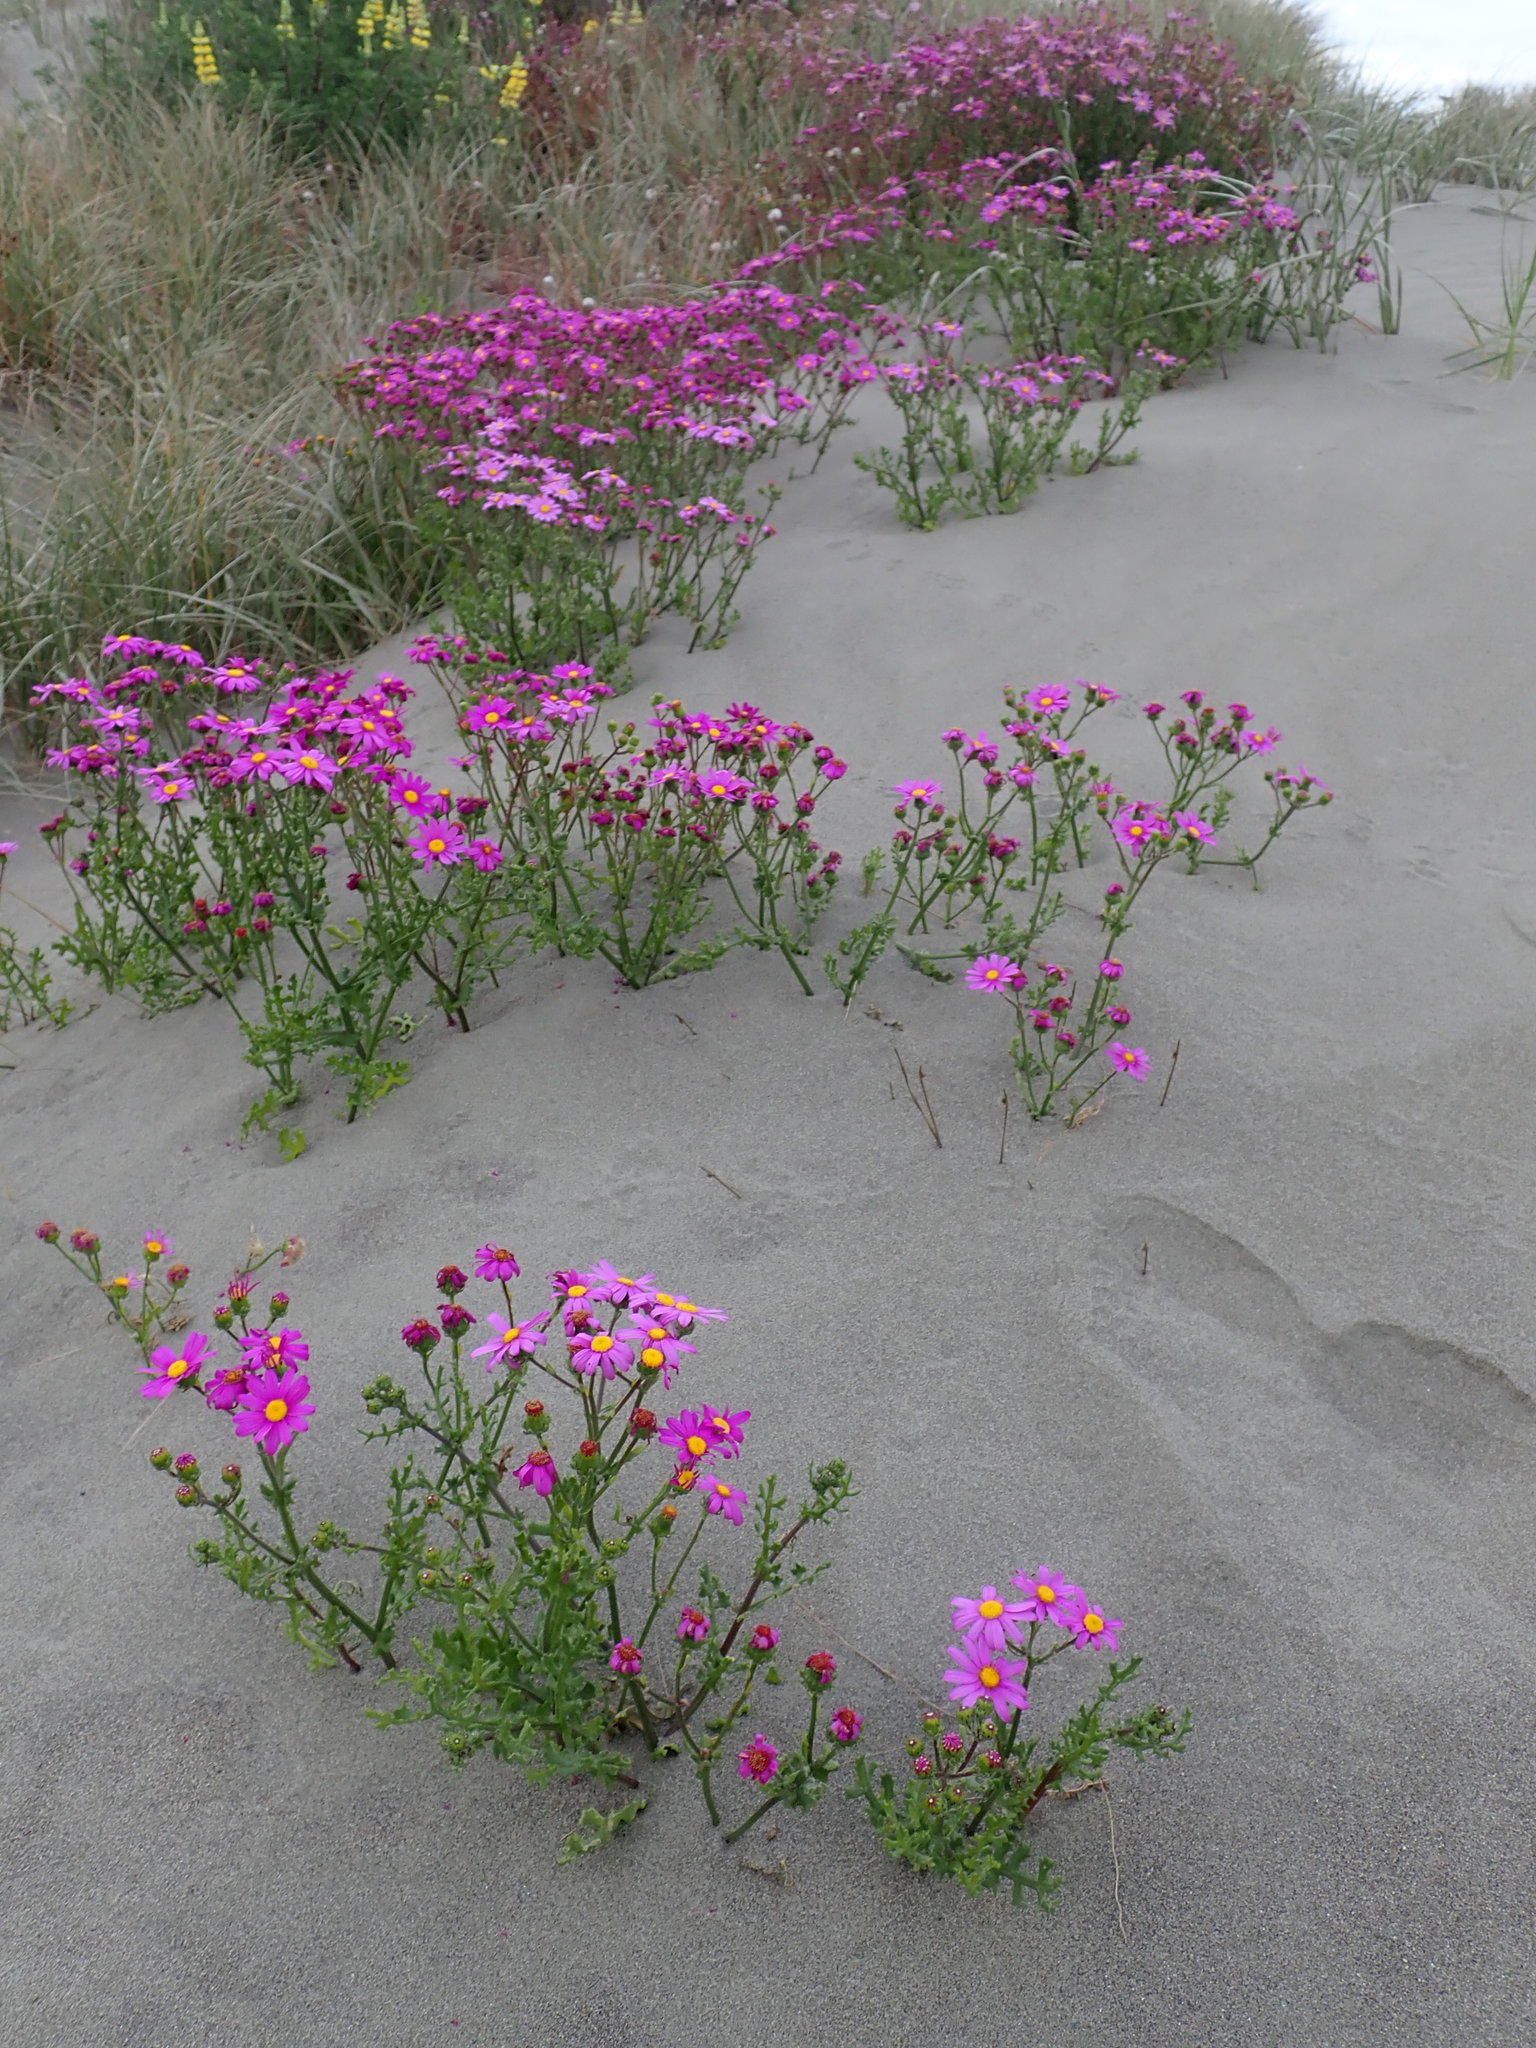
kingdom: Plantae
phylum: Tracheophyta
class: Magnoliopsida
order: Asterales
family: Asteraceae
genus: Senecio
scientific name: Senecio elegans
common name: Purple groundsel
